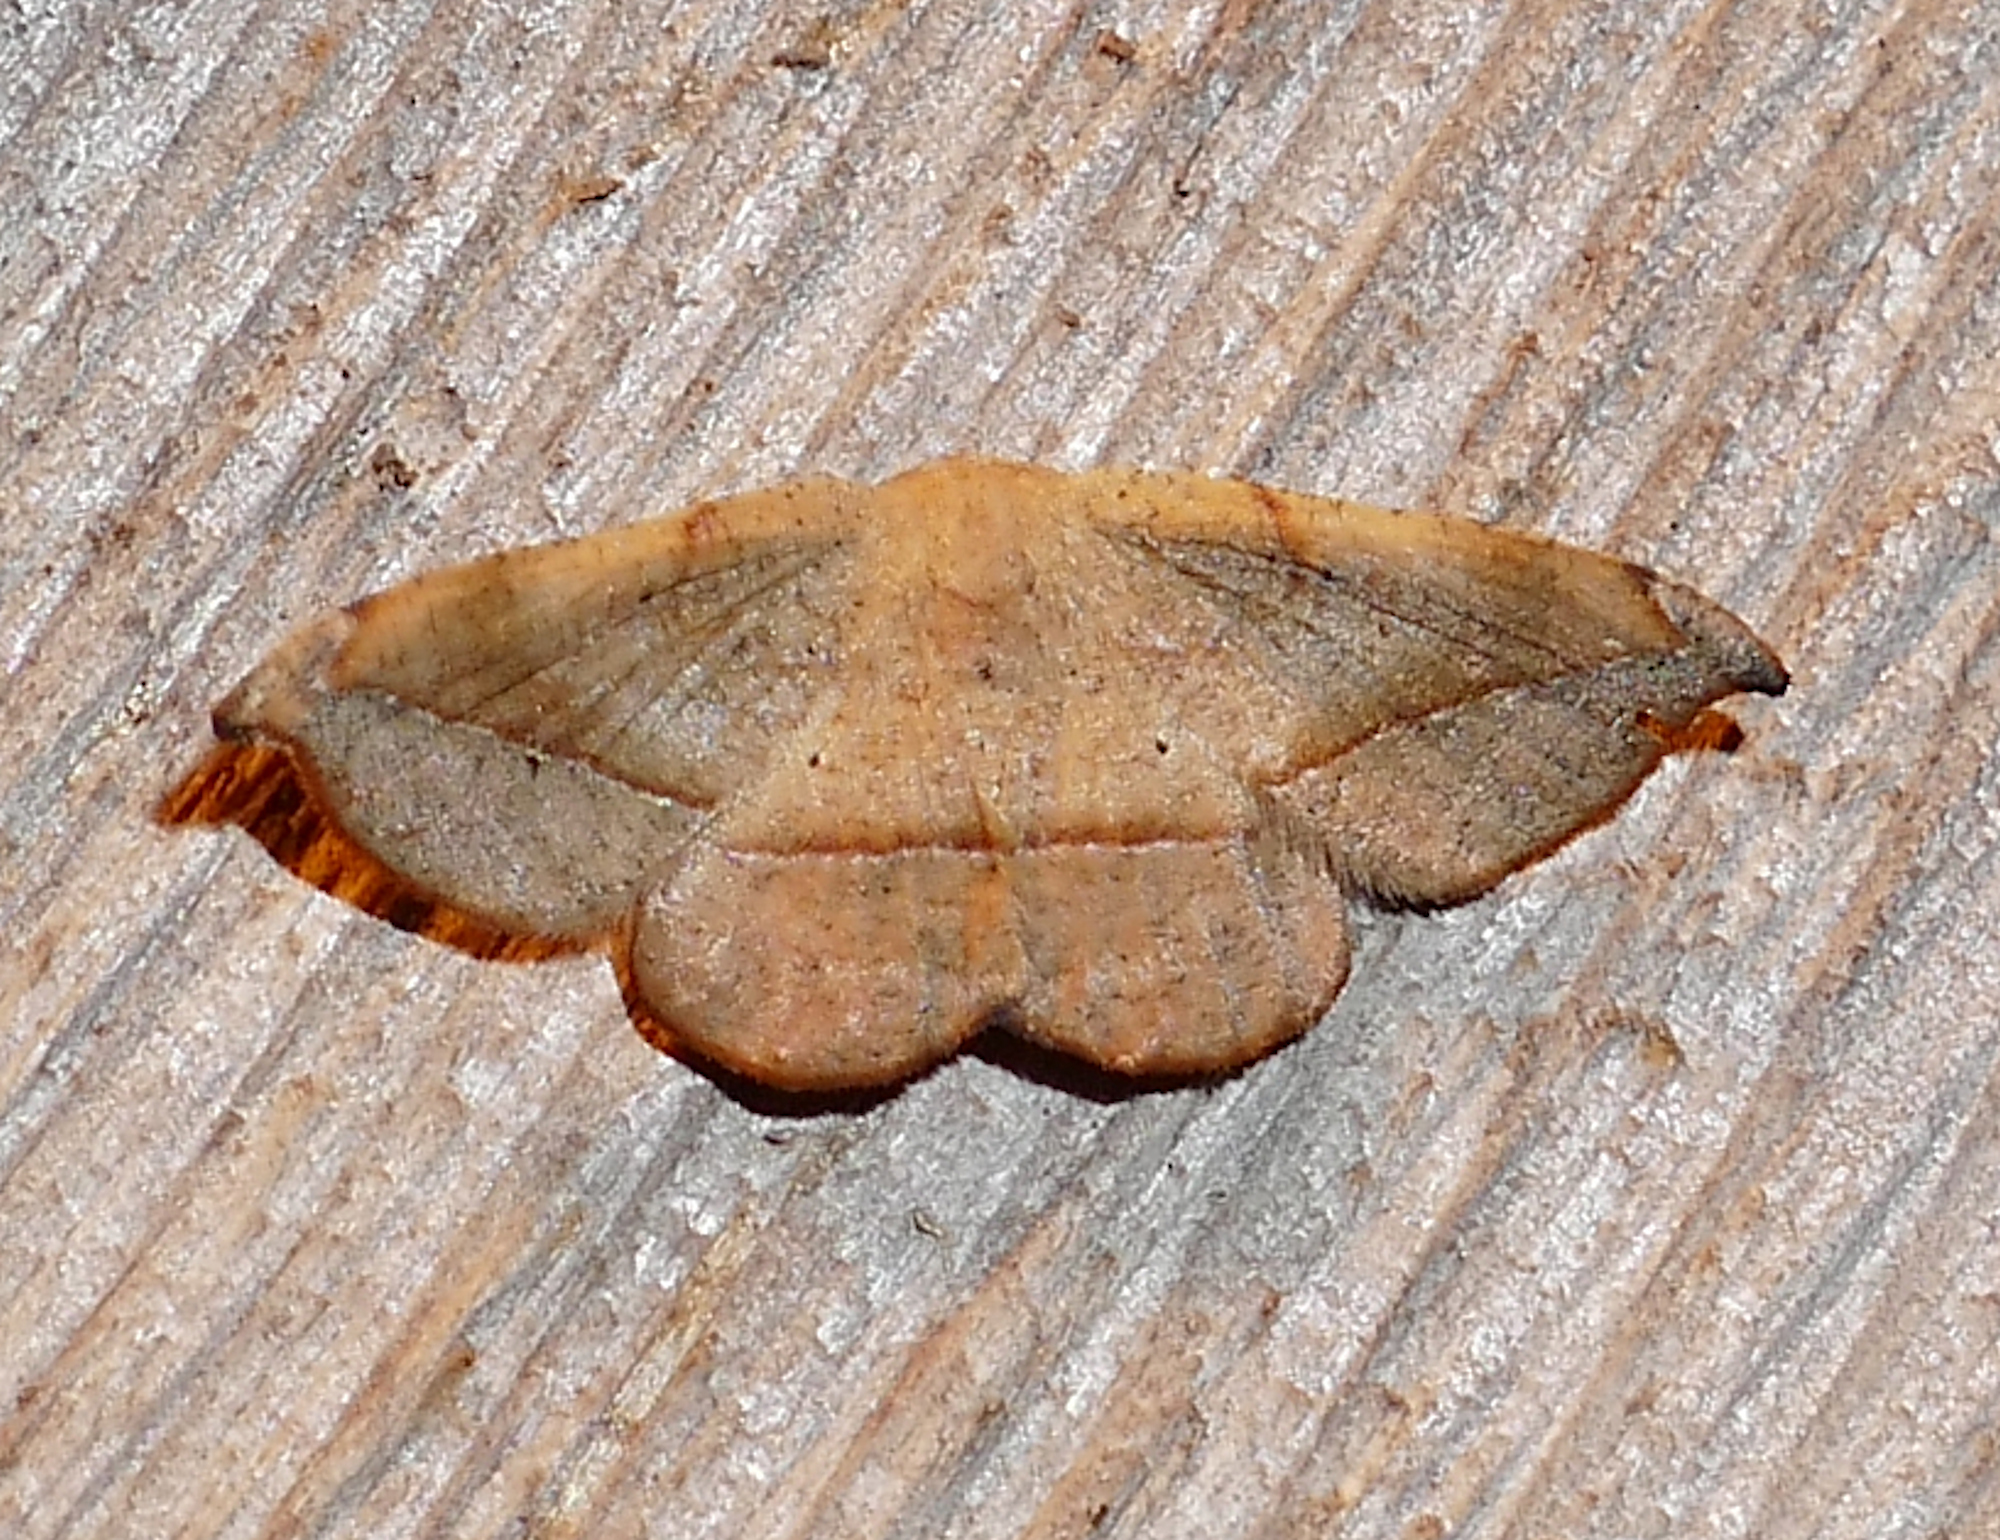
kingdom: Animalia
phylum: Arthropoda
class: Insecta
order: Lepidoptera
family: Geometridae
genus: Patalene
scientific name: Patalene olyzonaria
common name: Juniper geometer moth
